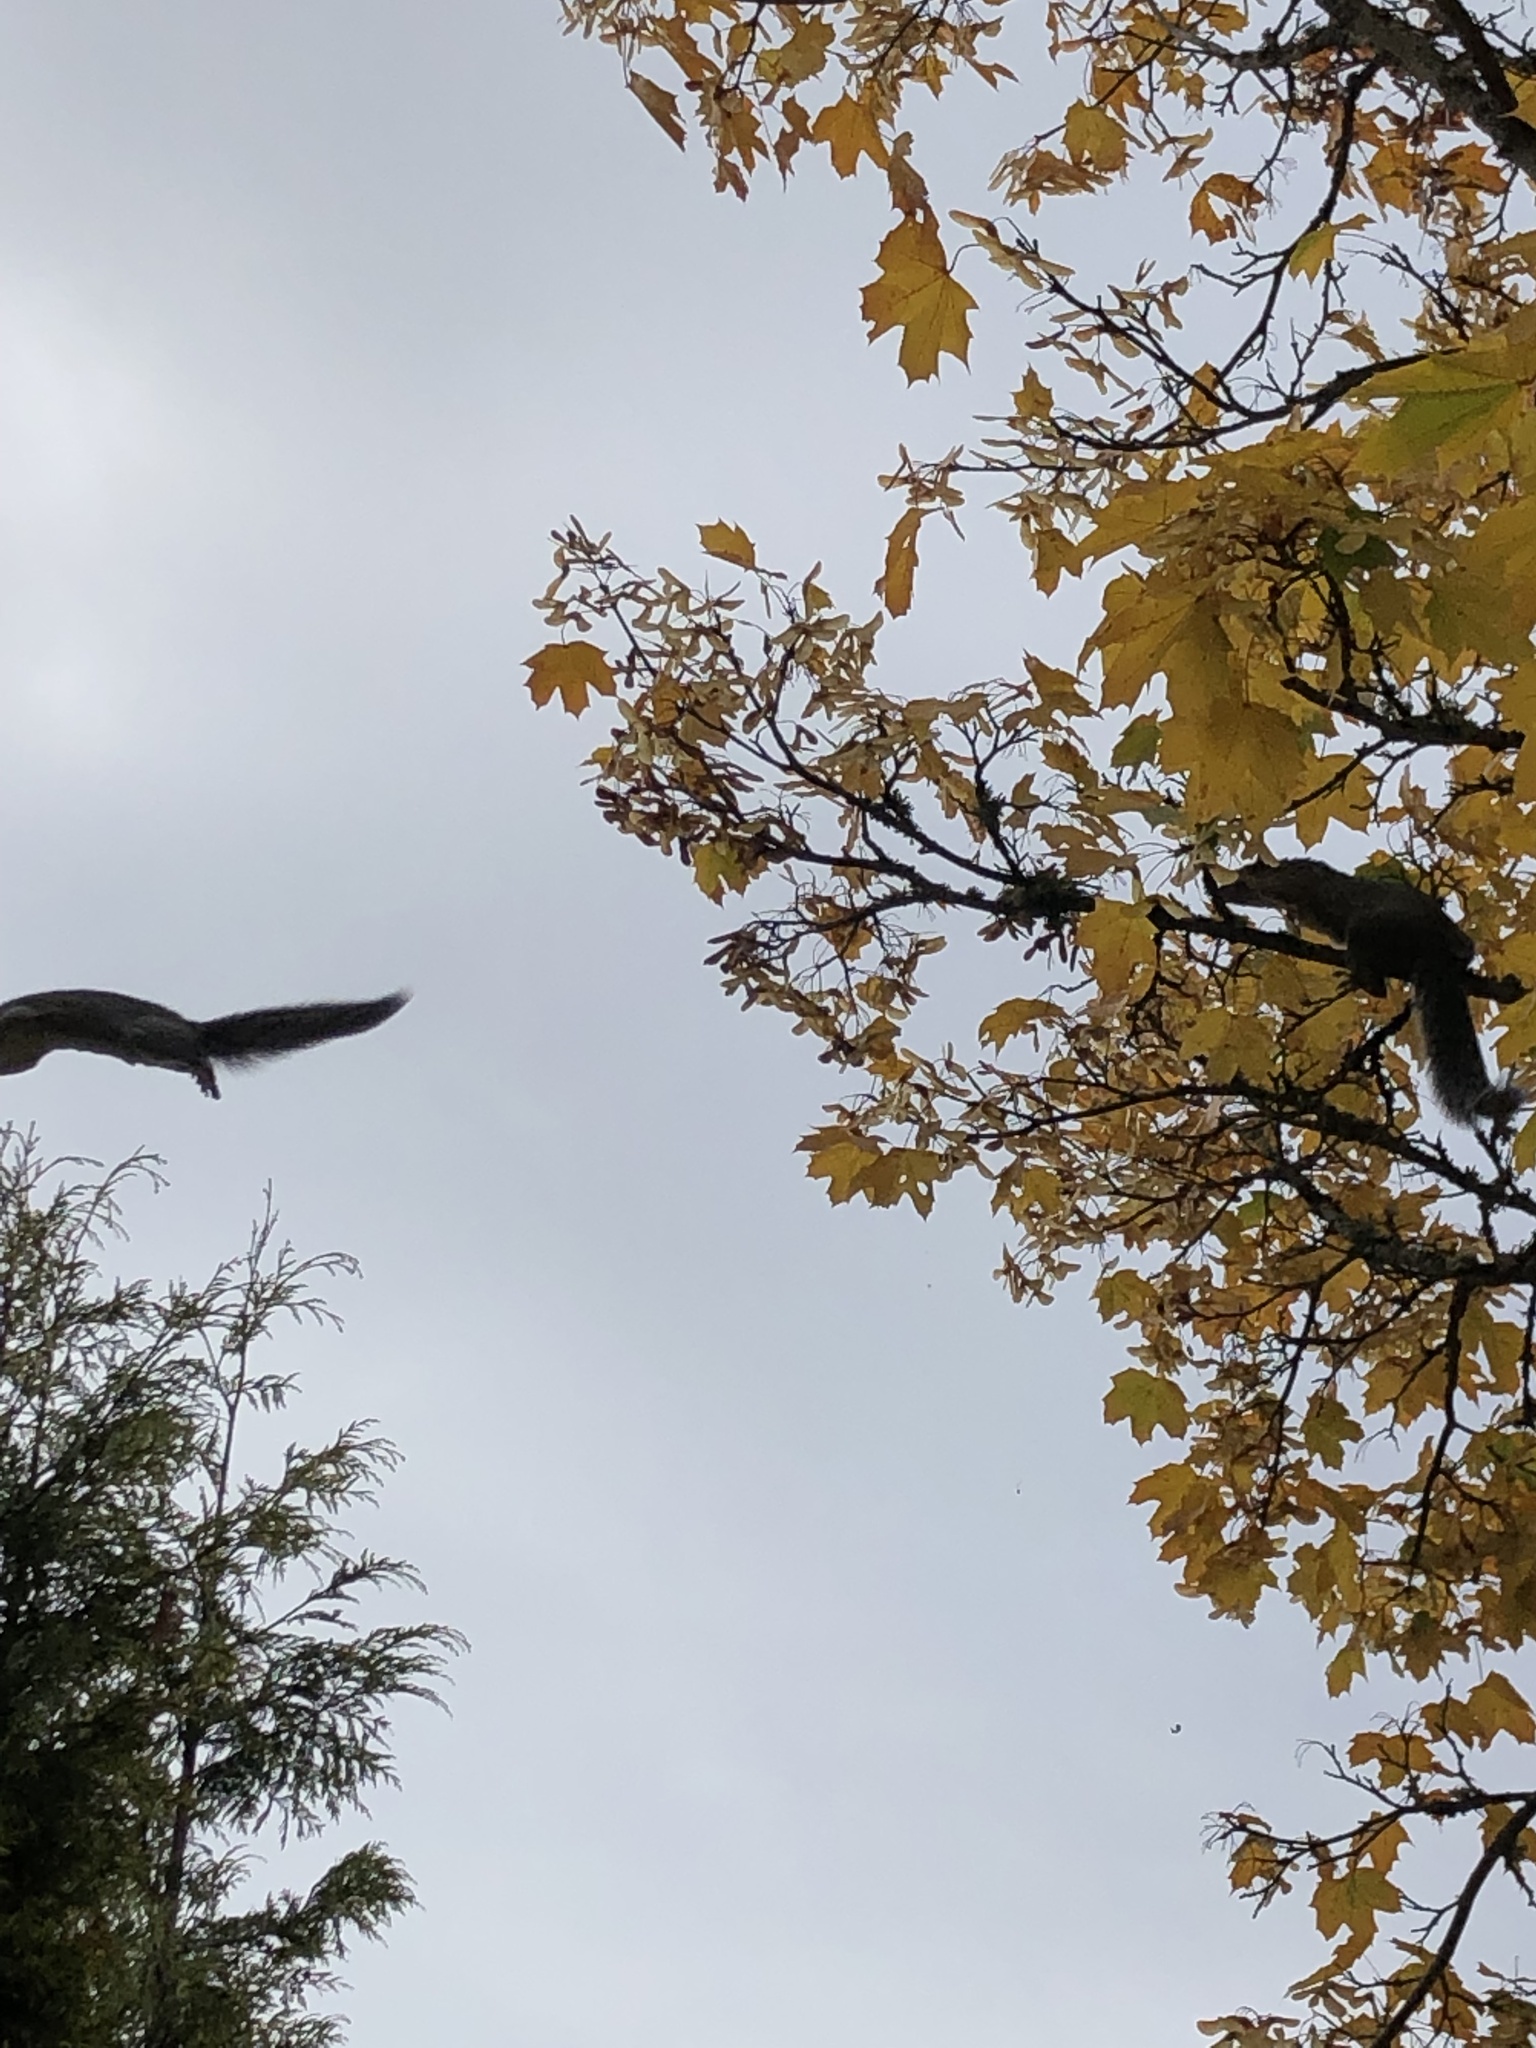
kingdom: Animalia
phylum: Chordata
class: Mammalia
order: Rodentia
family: Sciuridae
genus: Sciurus
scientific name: Sciurus carolinensis
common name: Eastern gray squirrel
